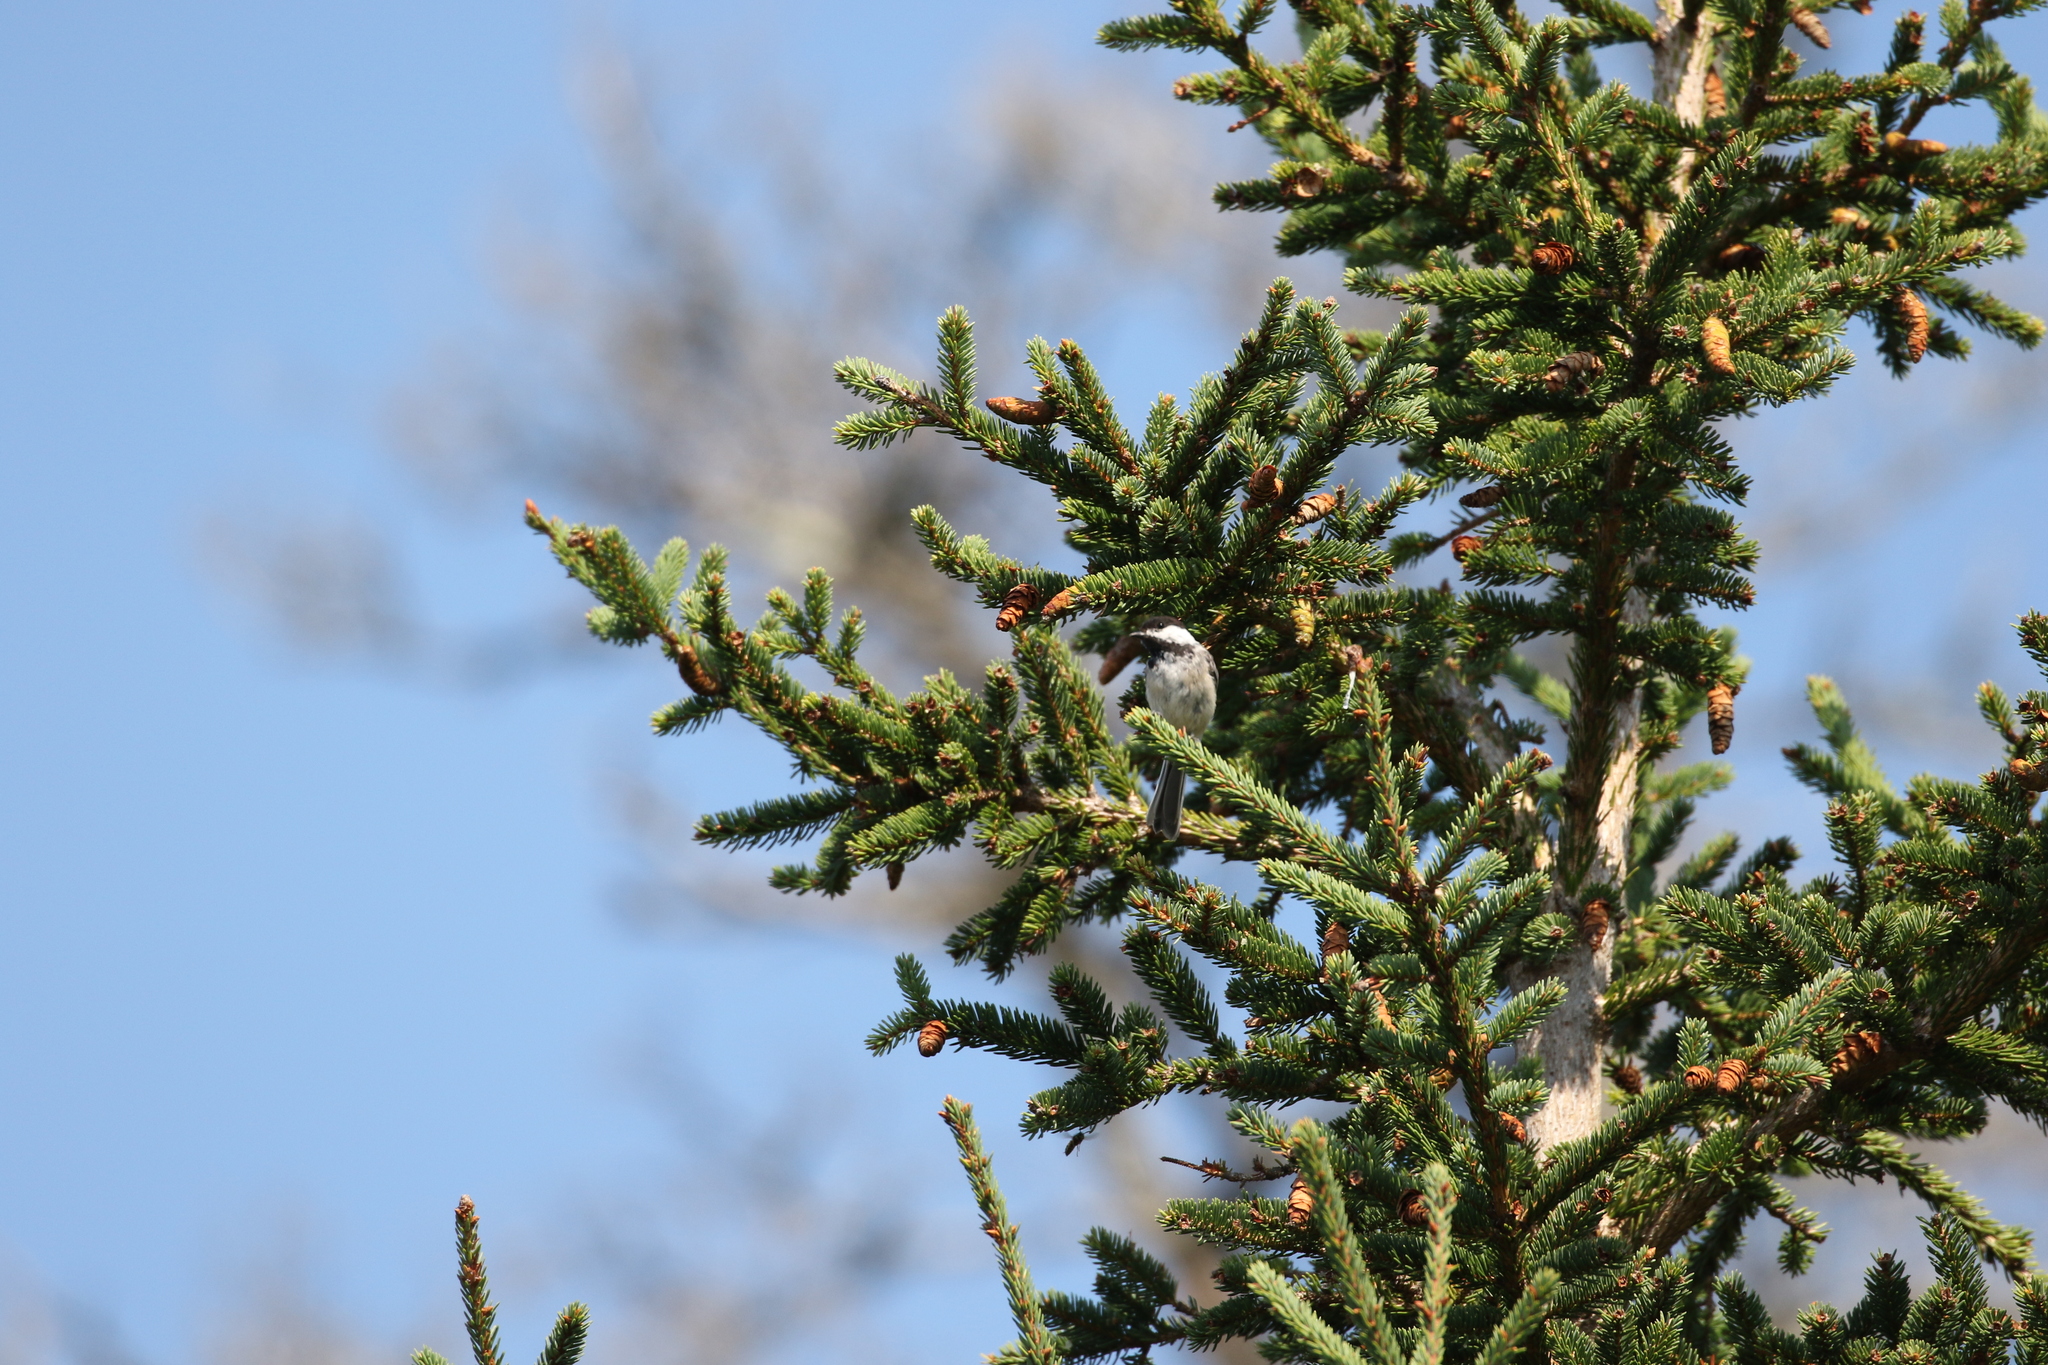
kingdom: Animalia
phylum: Chordata
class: Aves
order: Passeriformes
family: Paridae
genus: Poecile
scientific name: Poecile atricapillus
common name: Black-capped chickadee
